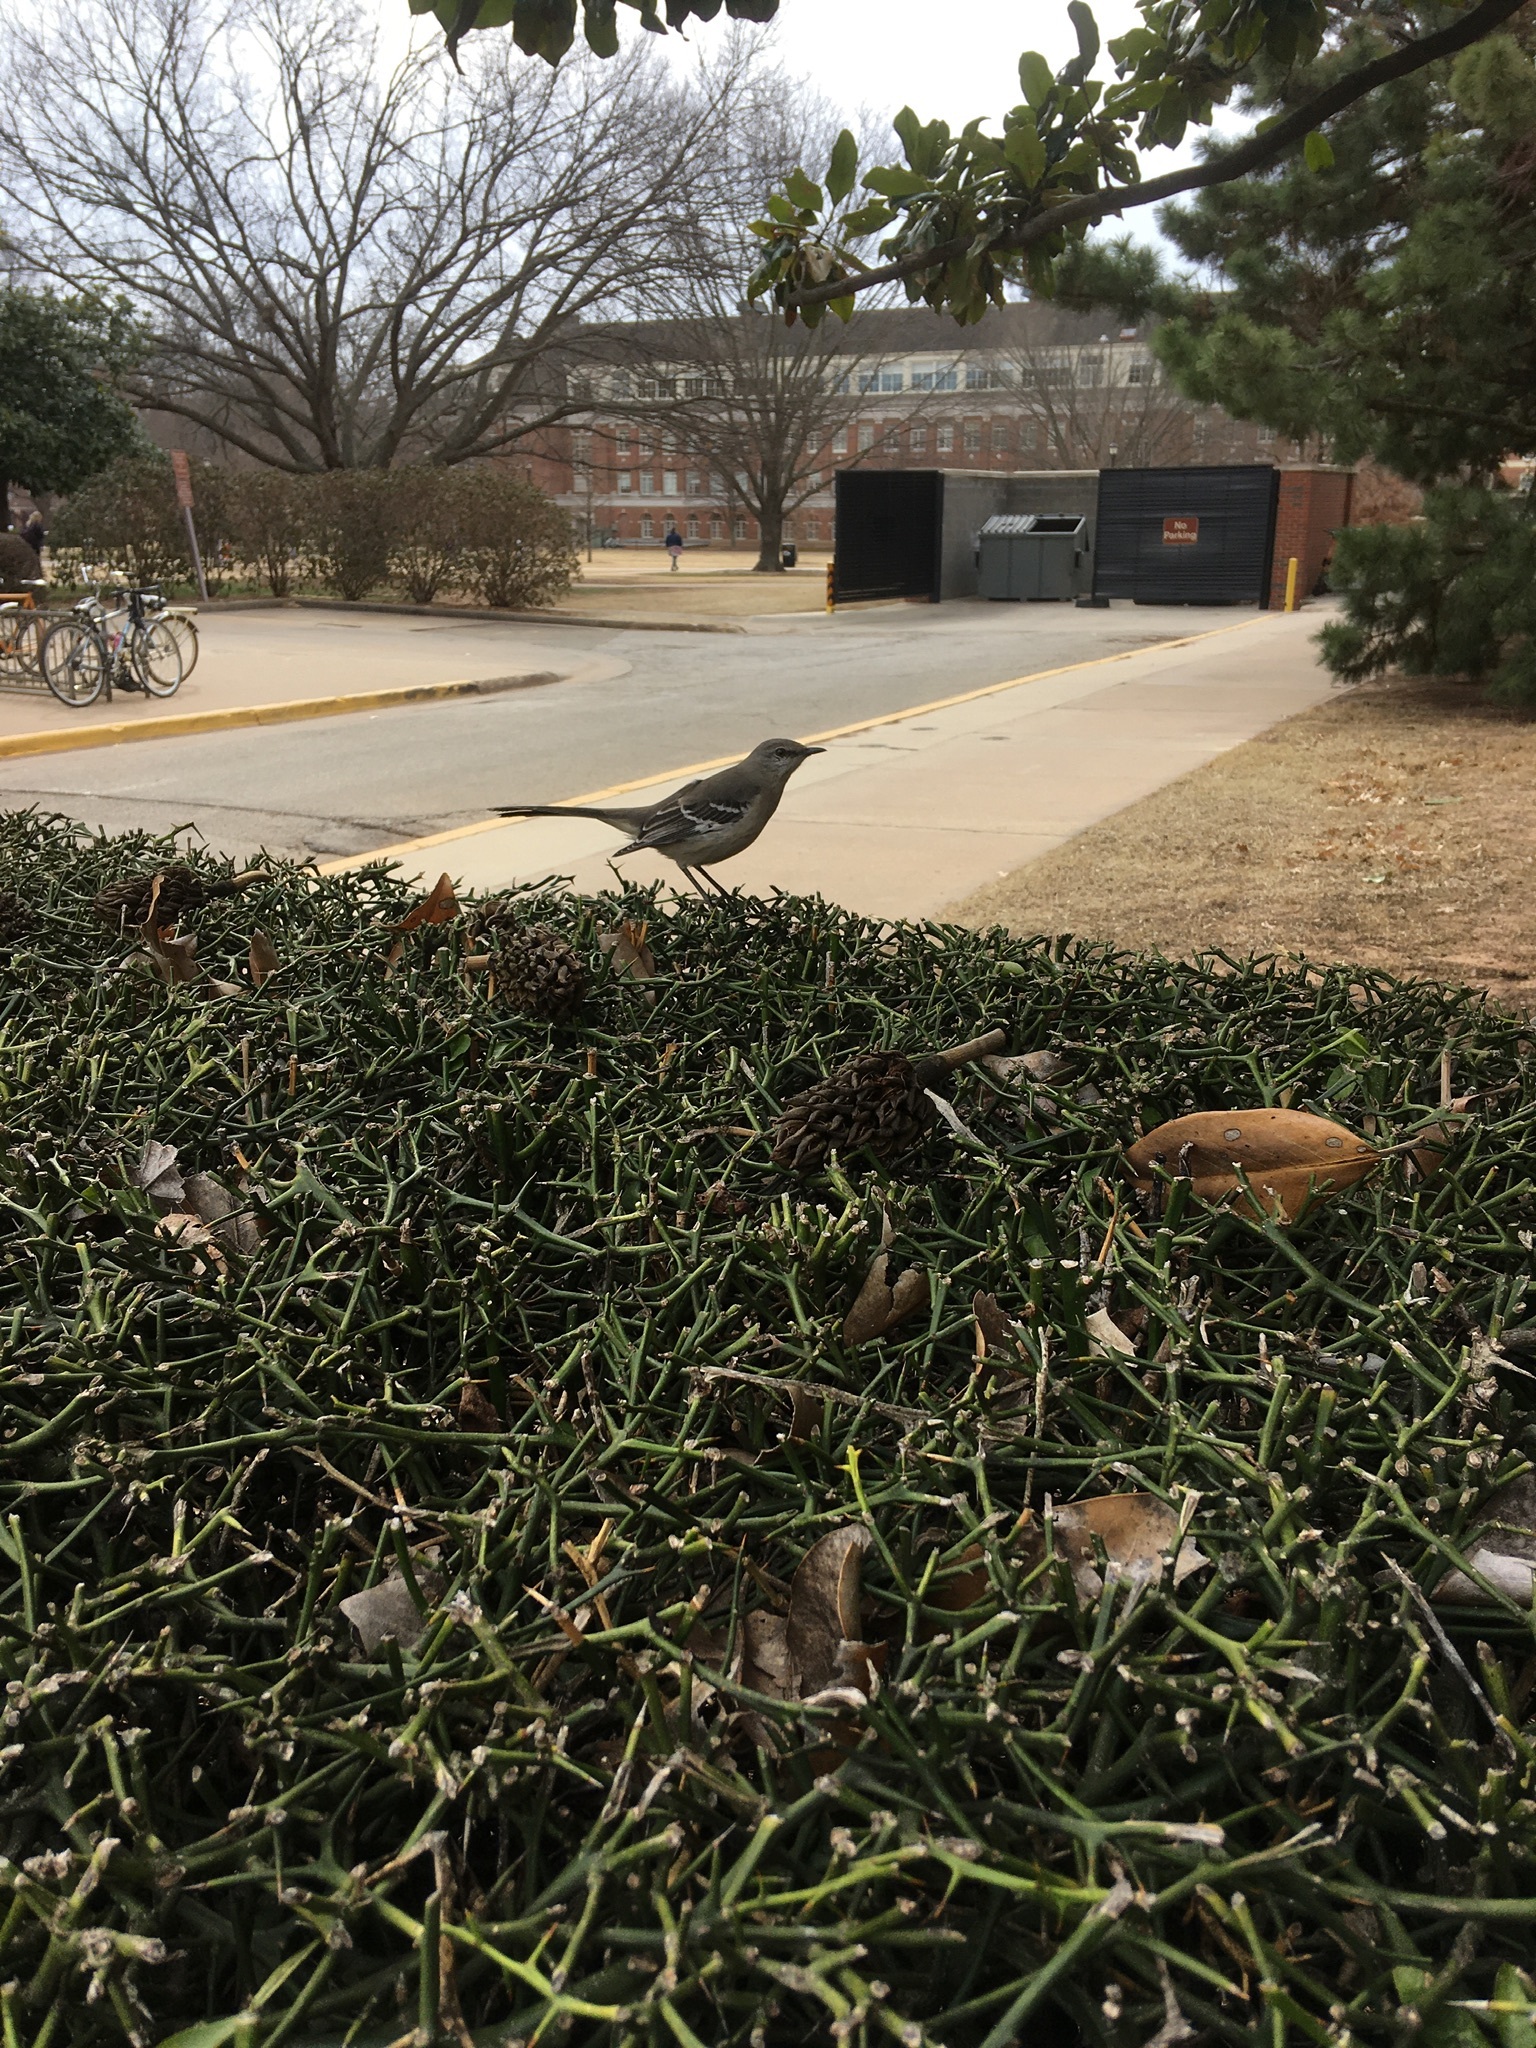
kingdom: Animalia
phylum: Chordata
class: Aves
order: Passeriformes
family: Mimidae
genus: Mimus
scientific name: Mimus polyglottos
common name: Northern mockingbird
